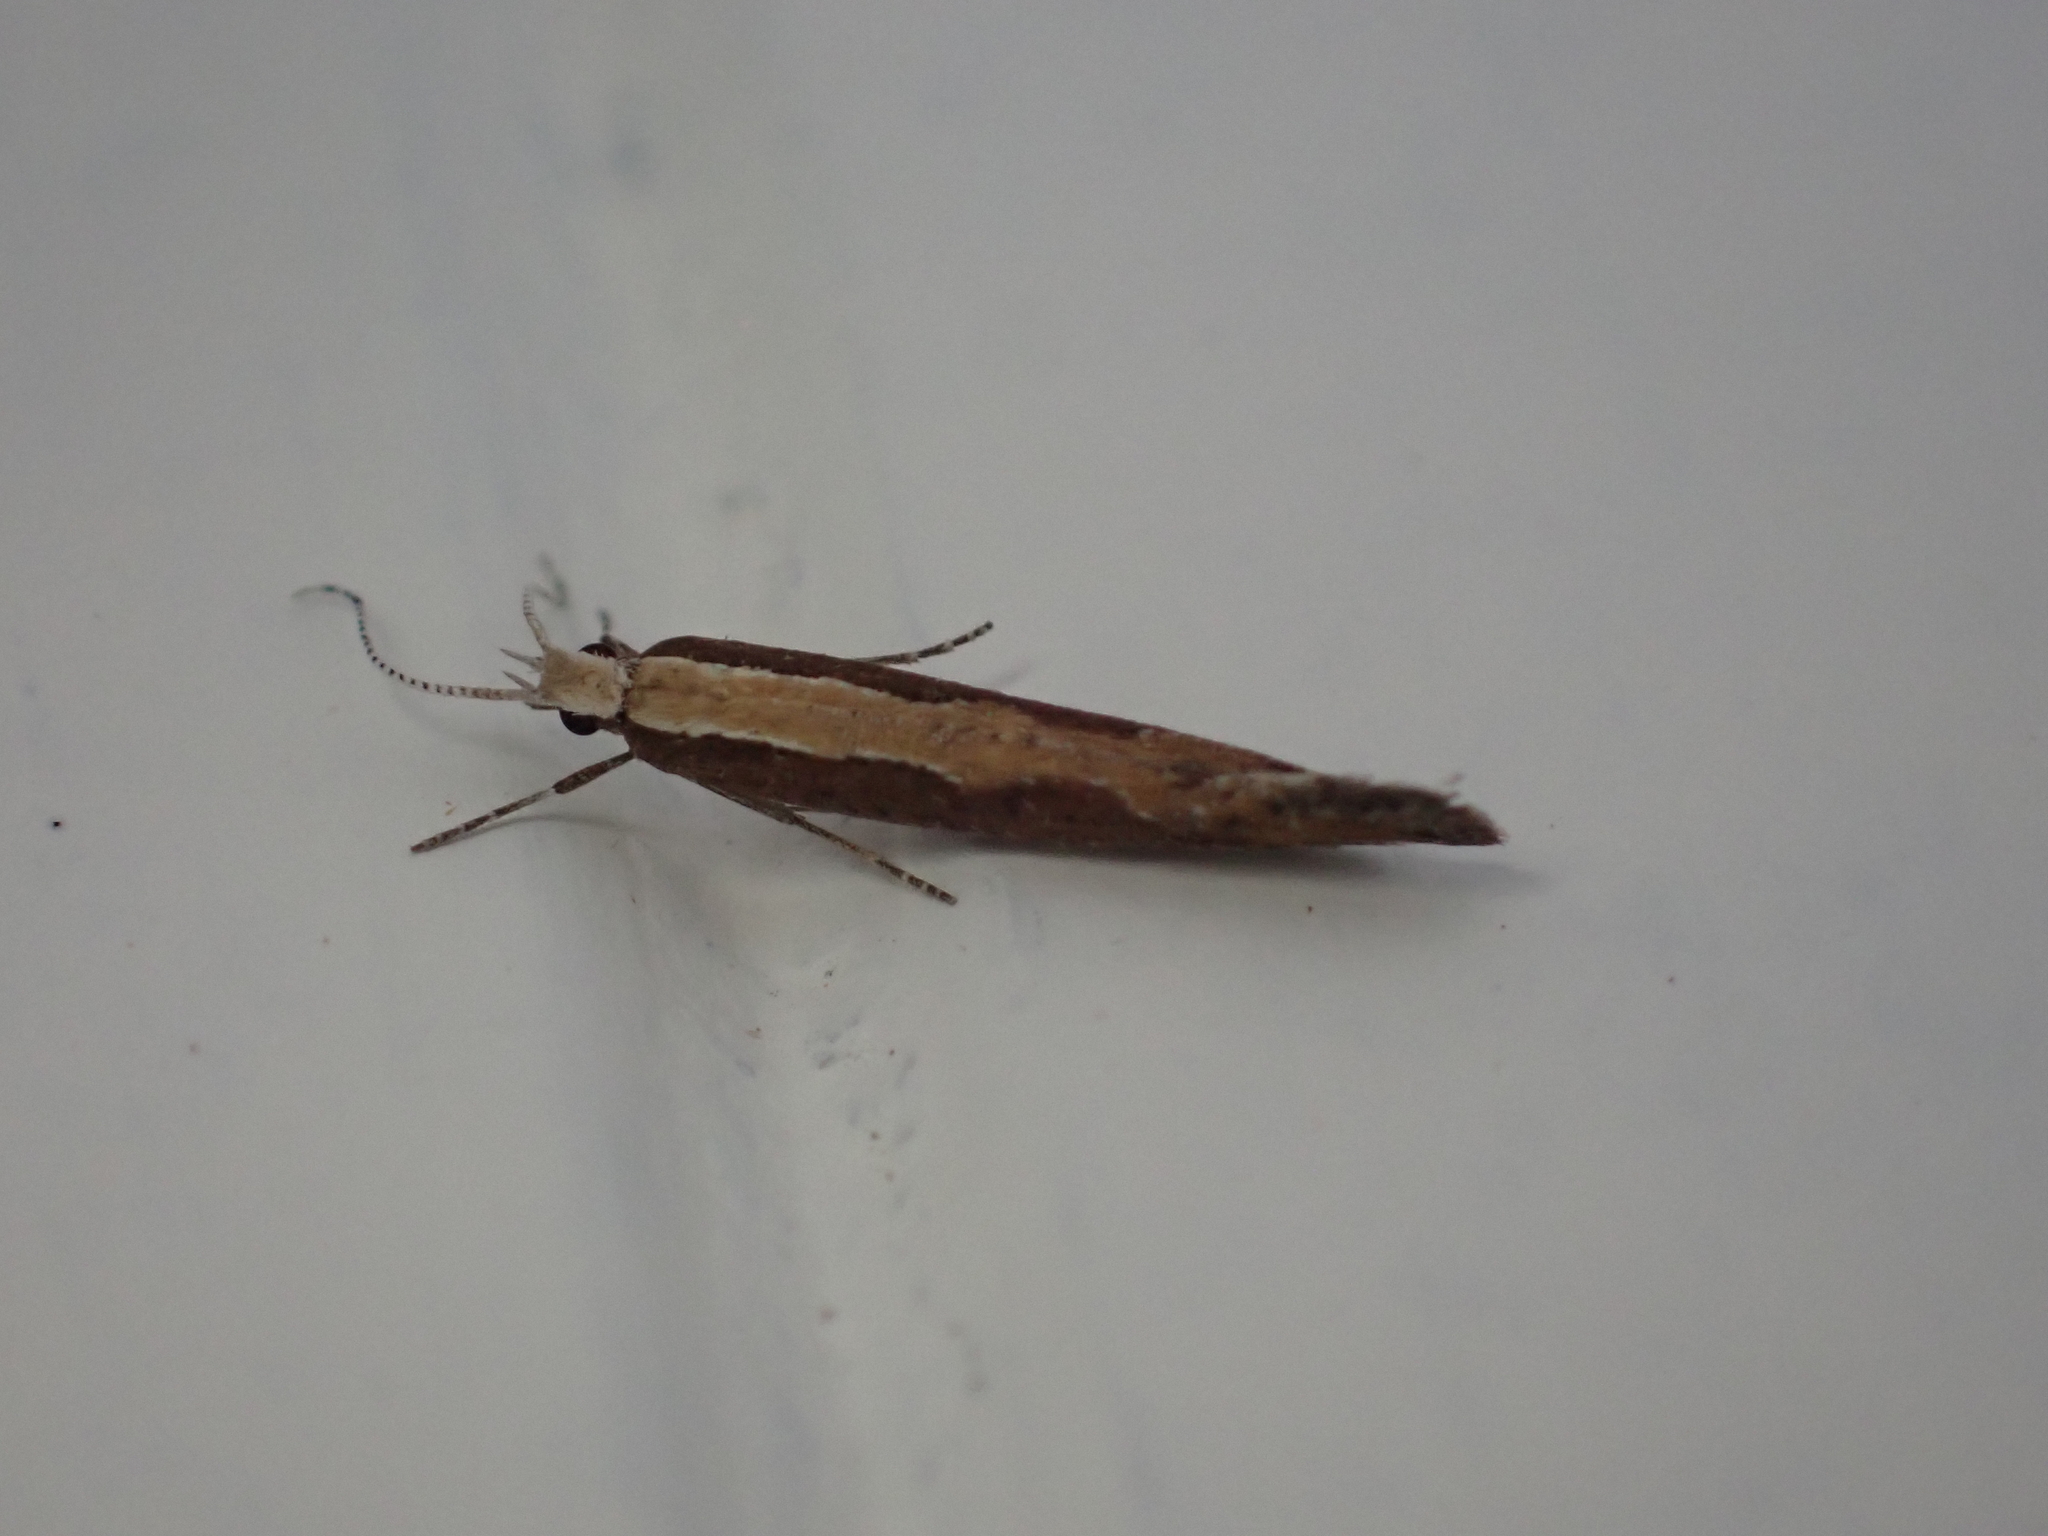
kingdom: Animalia
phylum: Arthropoda
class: Insecta
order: Lepidoptera
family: Plutellidae
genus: Plutella
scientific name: Plutella xylostella
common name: Diamond-back moth
